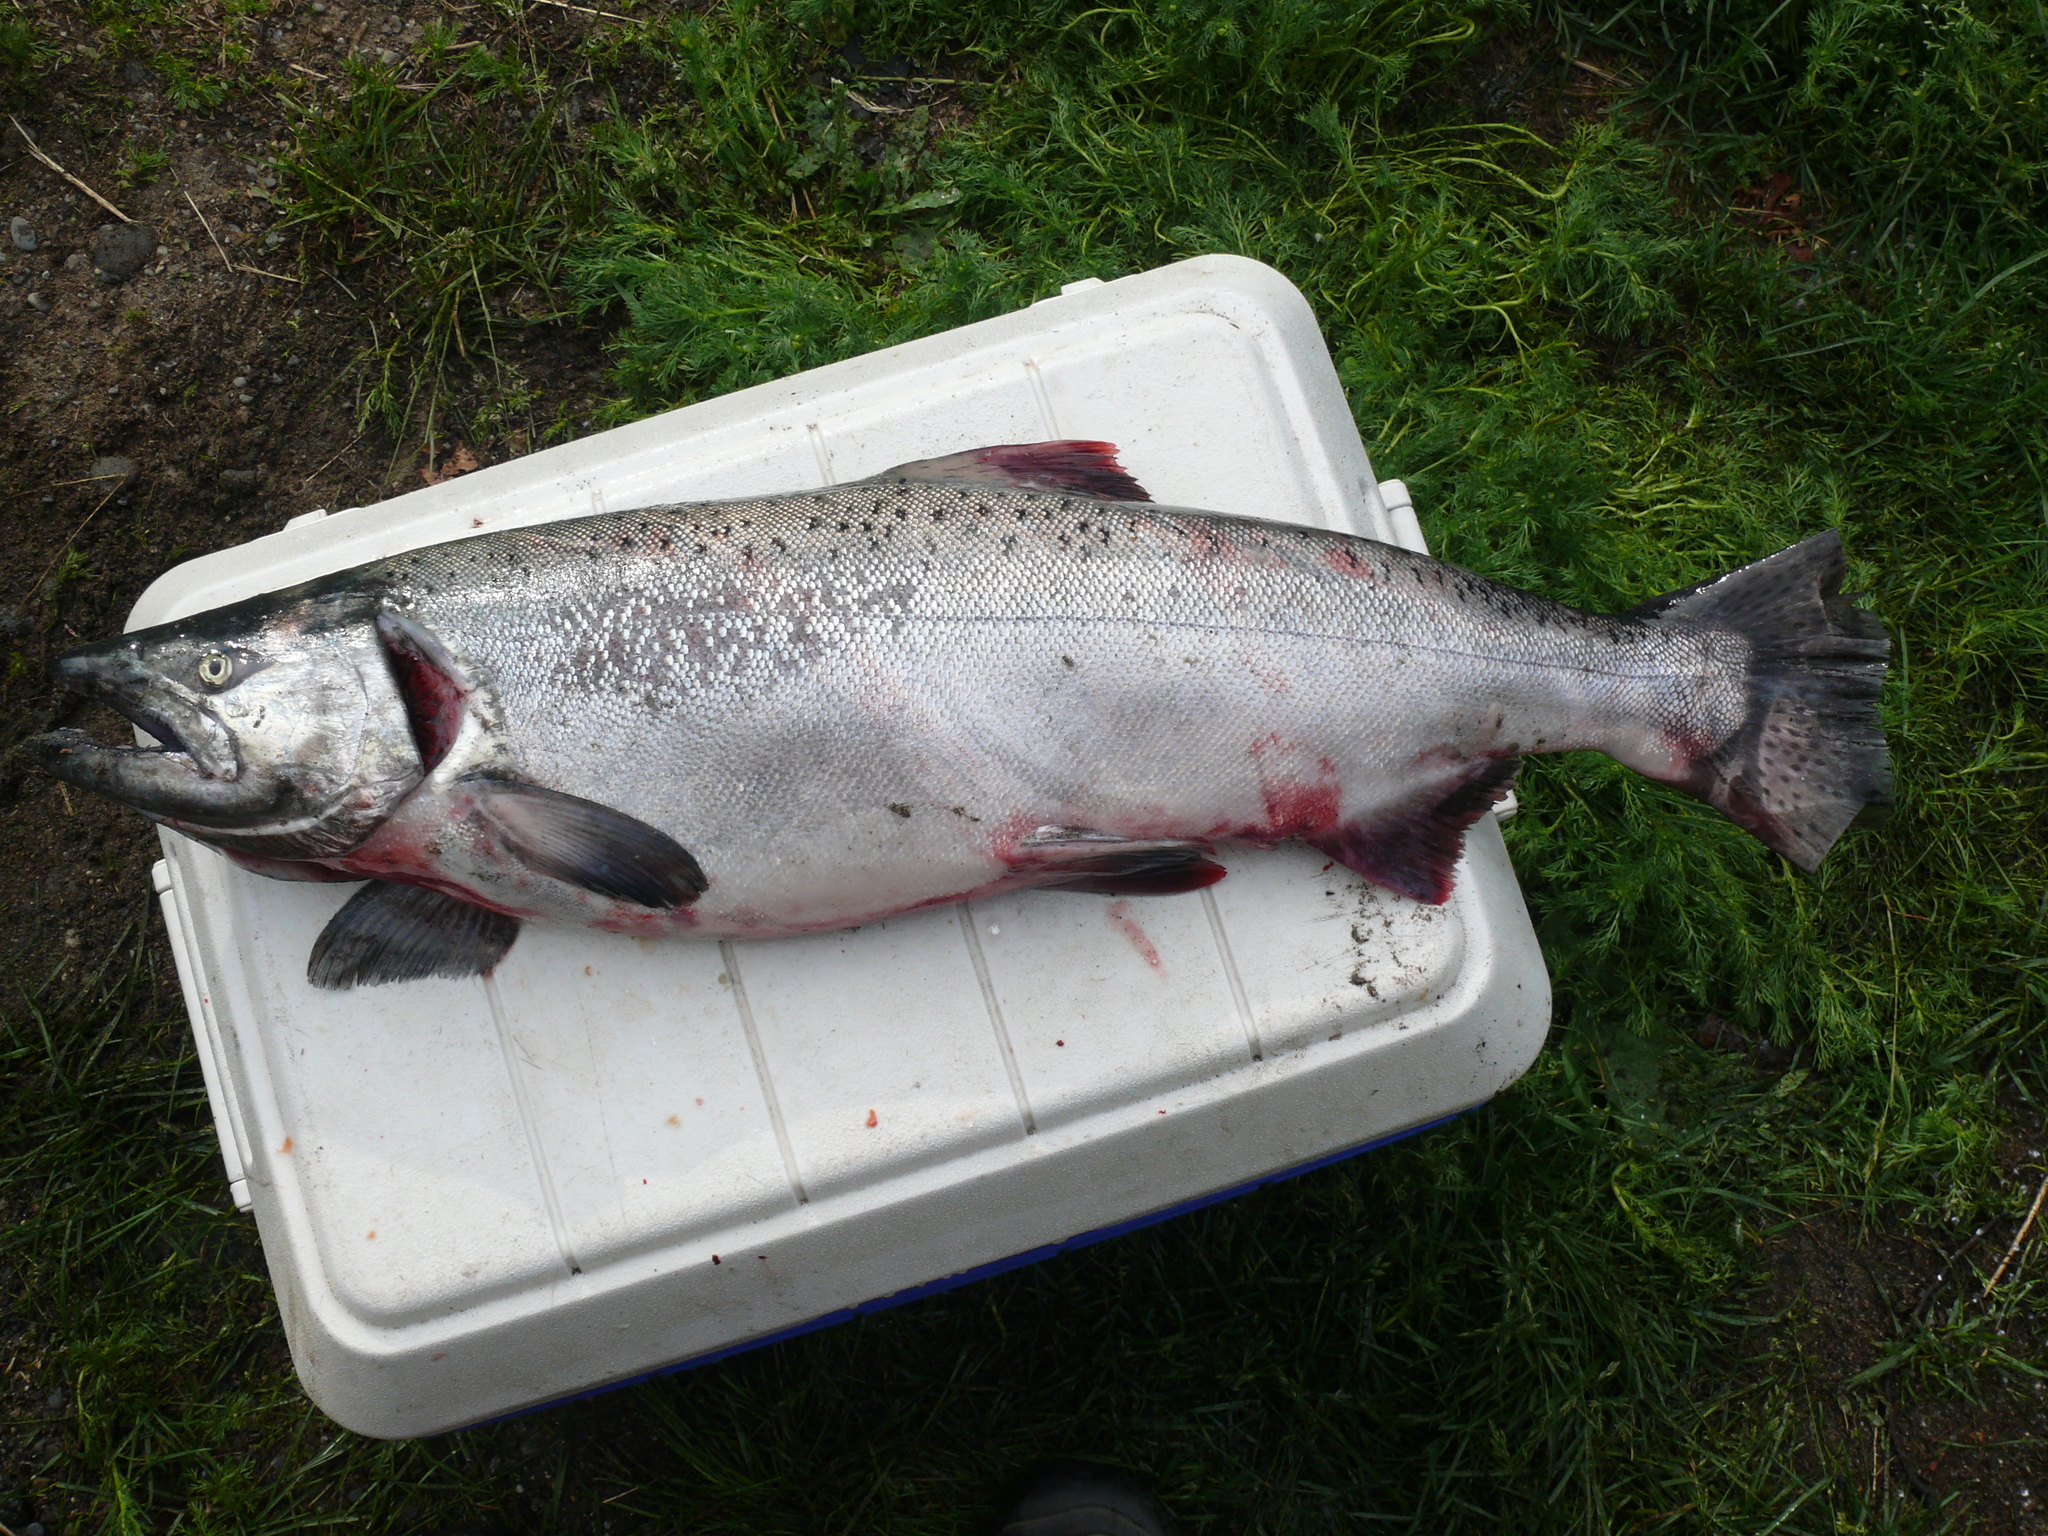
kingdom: Animalia
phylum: Chordata
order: Salmoniformes
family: Salmonidae
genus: Oncorhynchus
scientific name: Oncorhynchus tshawytscha
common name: Chinook salmon
